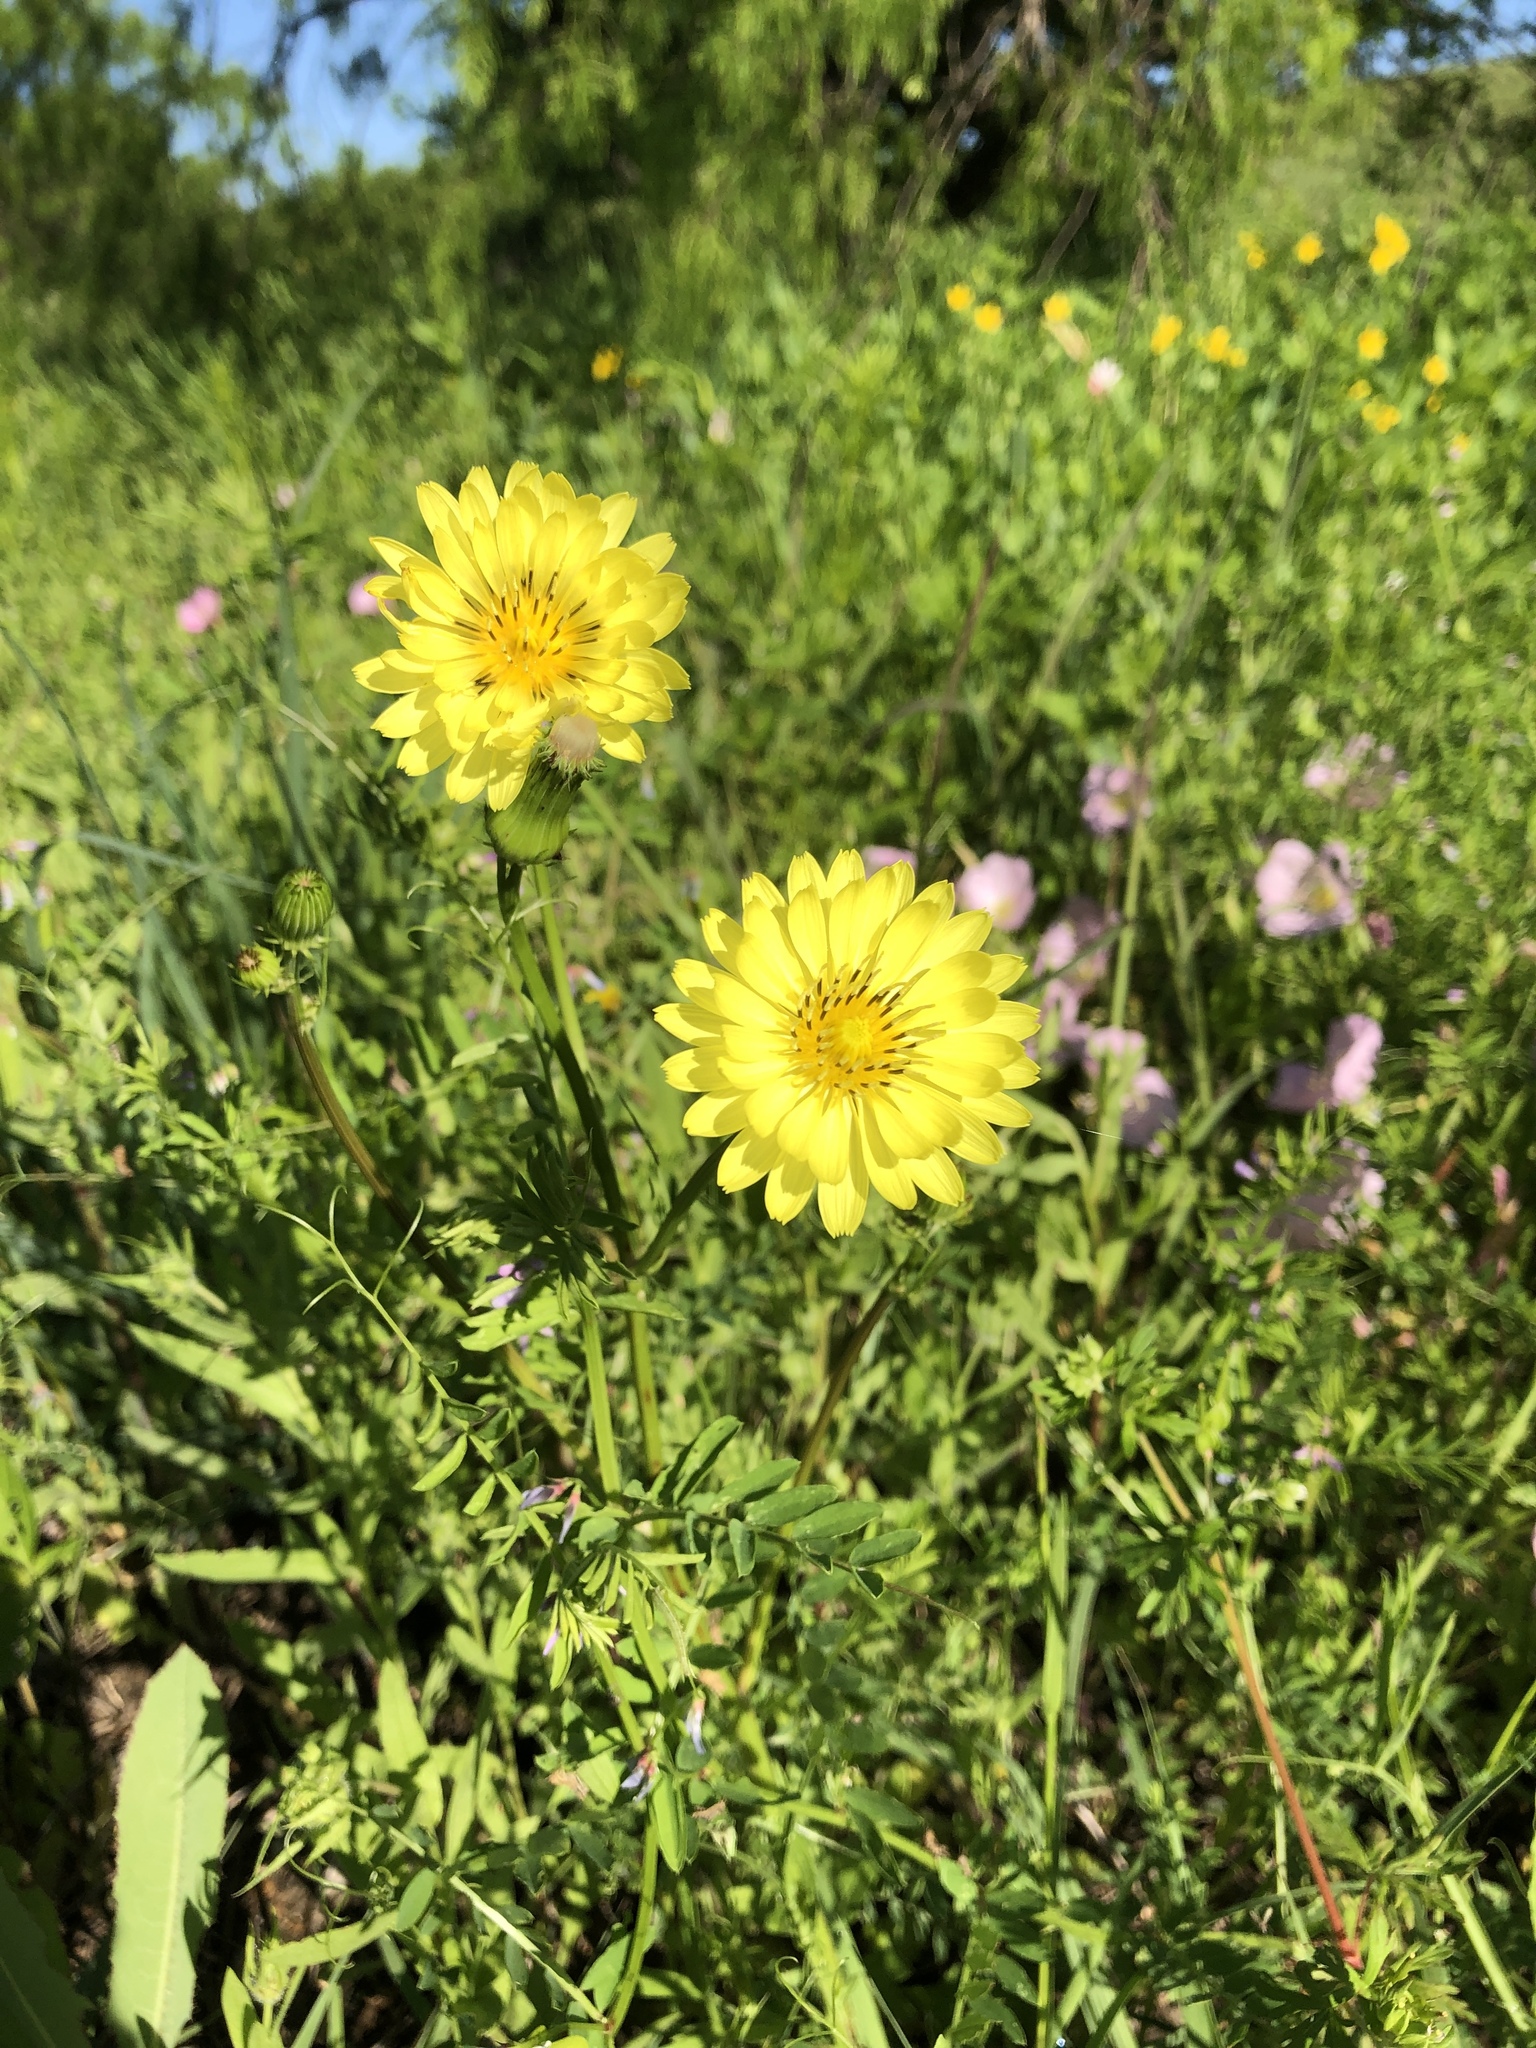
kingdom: Plantae
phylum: Tracheophyta
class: Magnoliopsida
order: Asterales
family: Asteraceae
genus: Pyrrhopappus
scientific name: Pyrrhopappus pauciflorus
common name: Texas false dandelion
